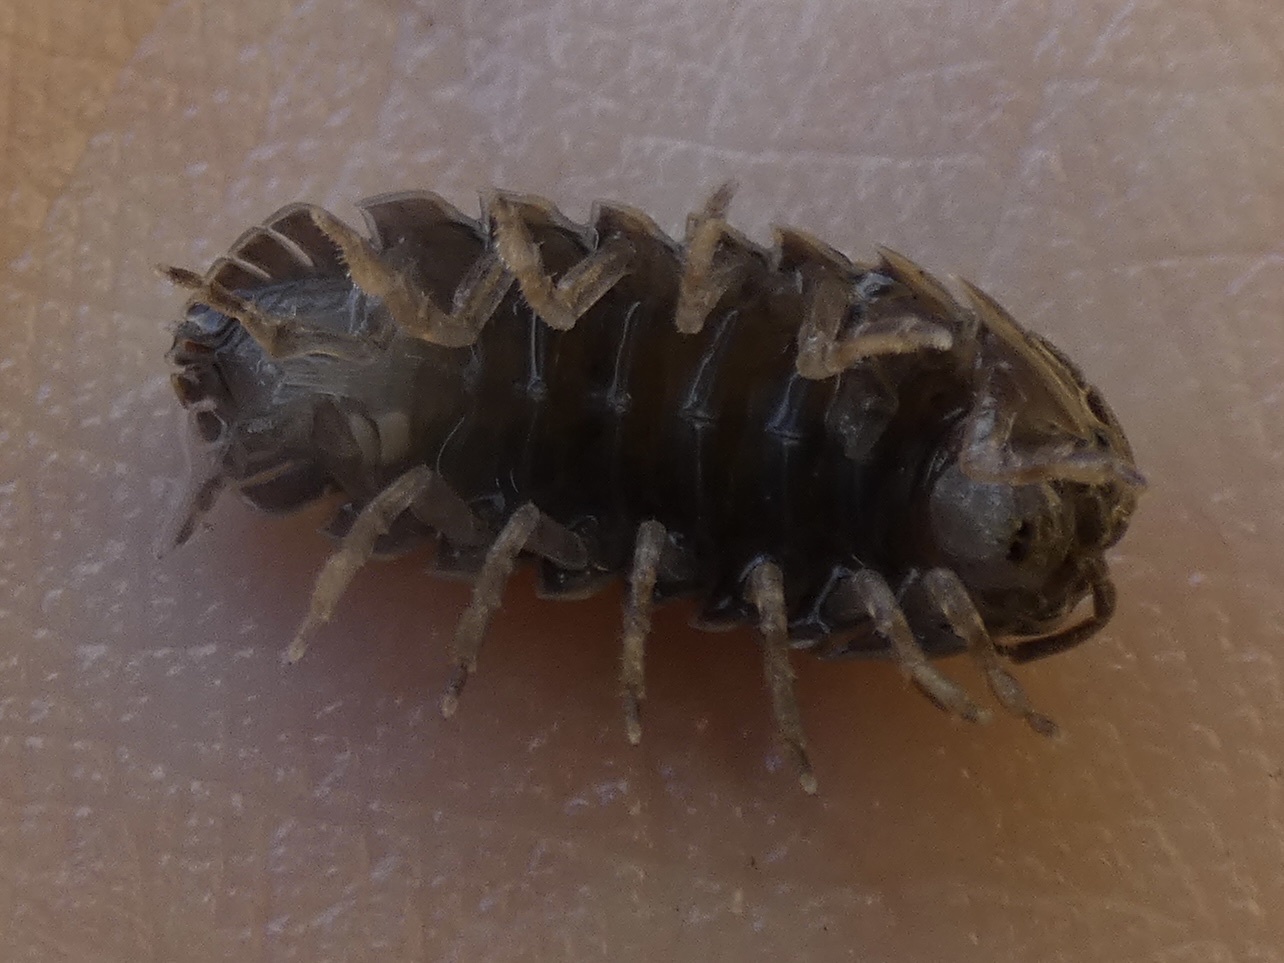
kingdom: Animalia
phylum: Arthropoda
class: Malacostraca
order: Isopoda
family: Porcellionidae
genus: Porcellio
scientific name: Porcellio scaber
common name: Common rough woodlouse
